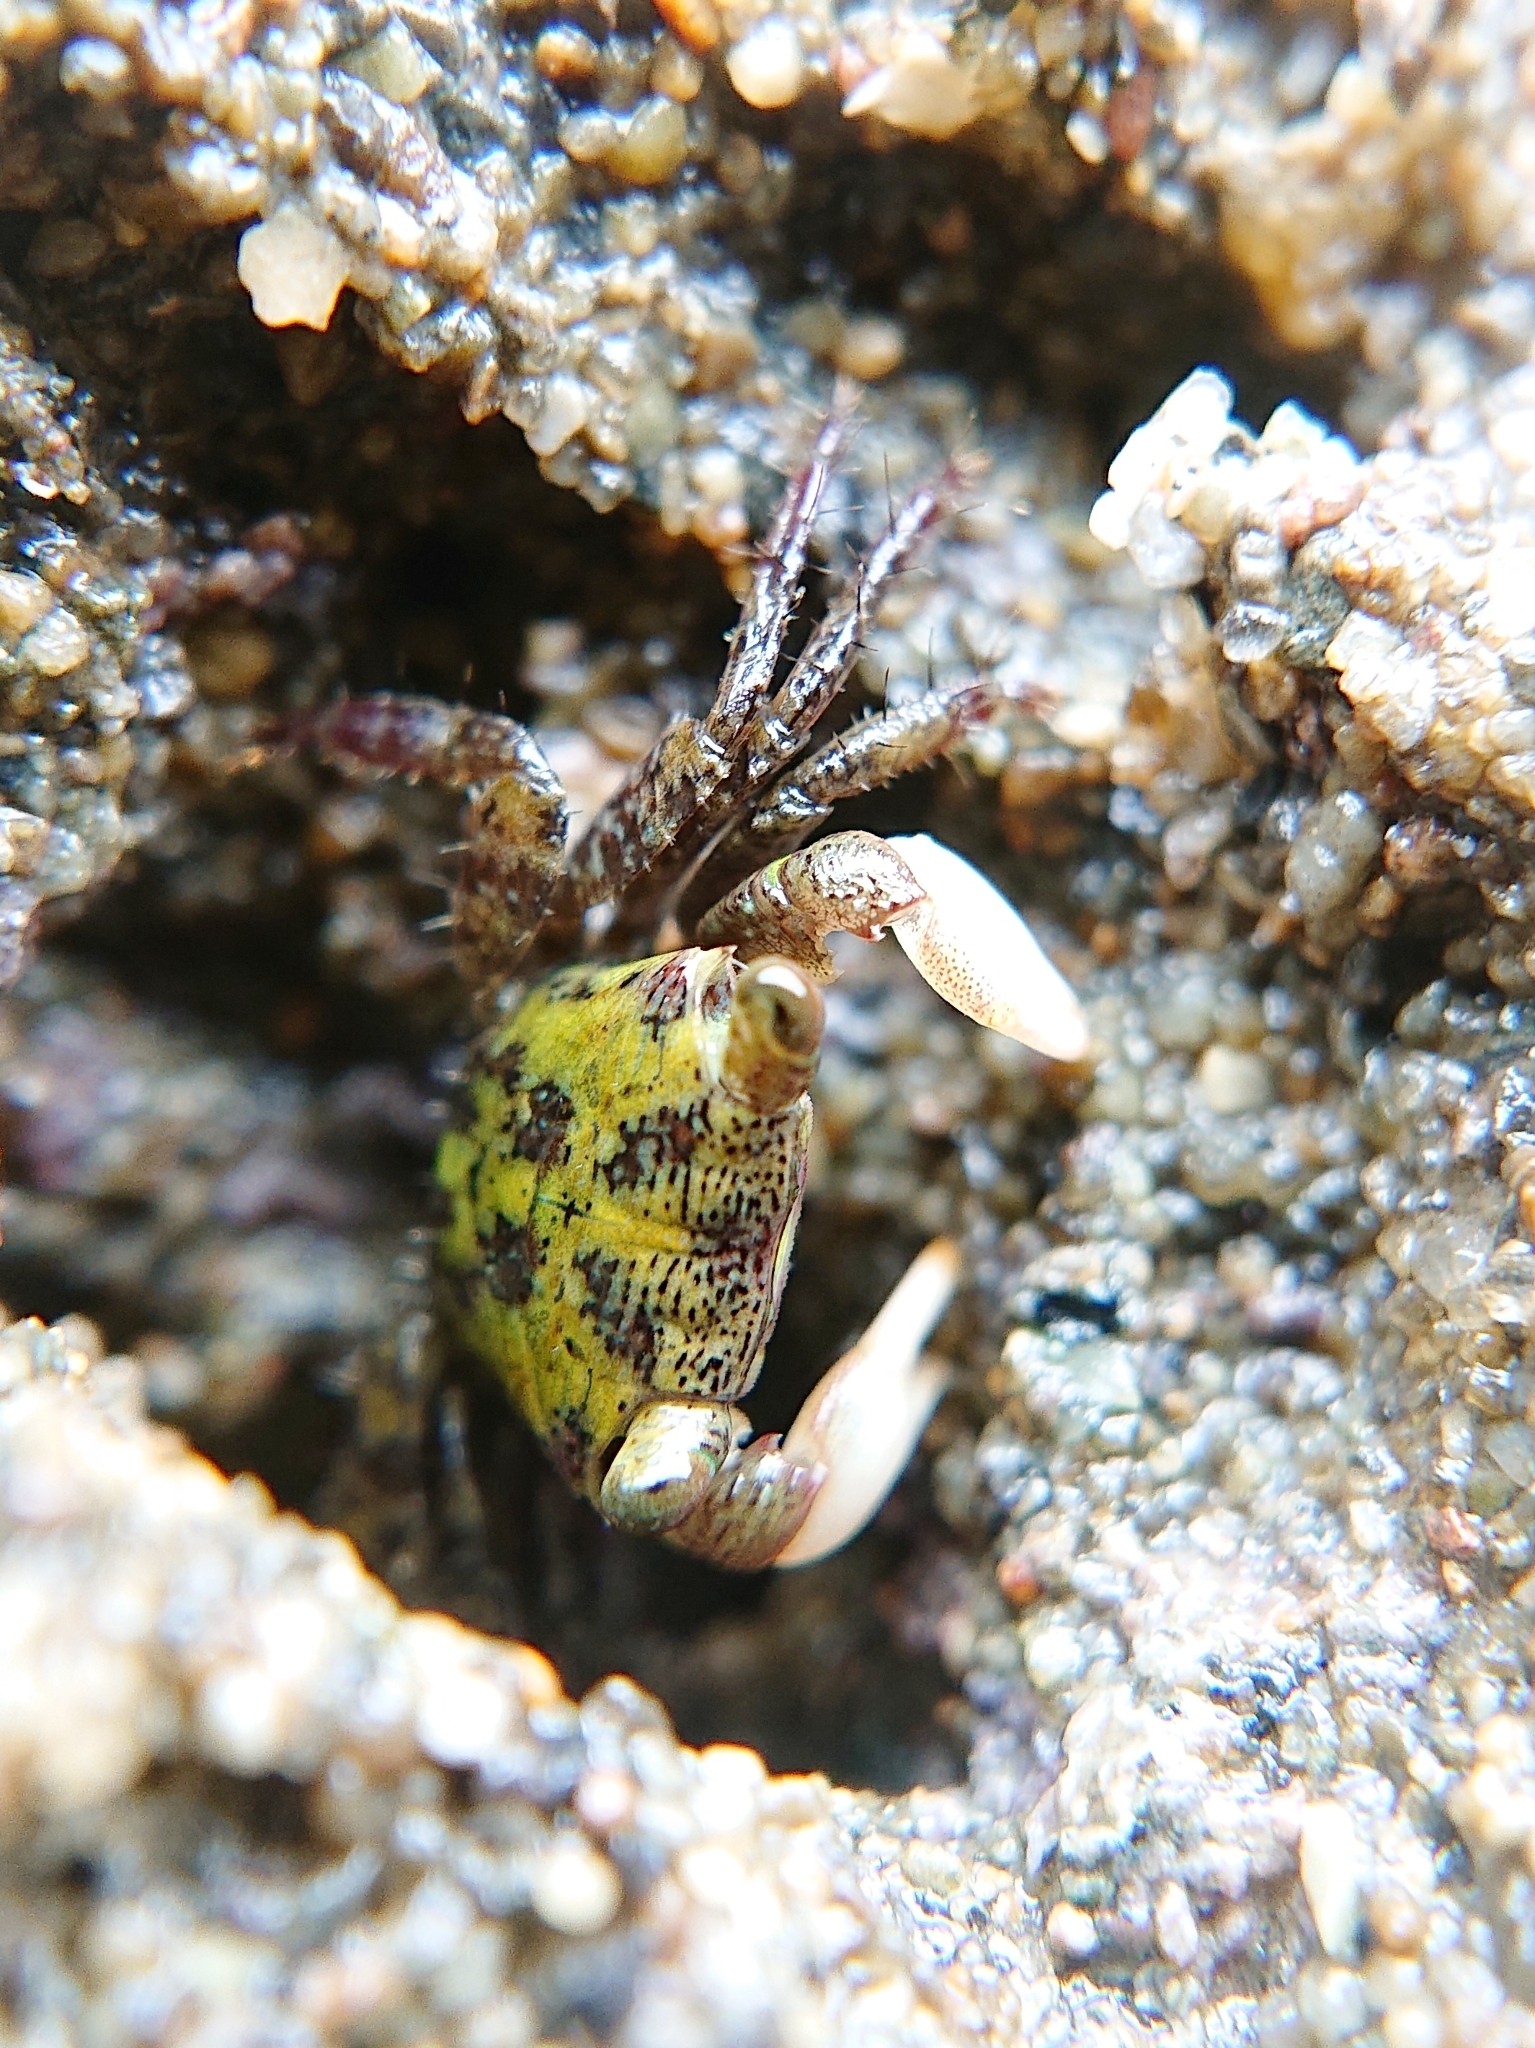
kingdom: Animalia
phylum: Arthropoda
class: Malacostraca
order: Decapoda
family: Grapsidae
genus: Pachygrapsus
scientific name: Pachygrapsus socius
